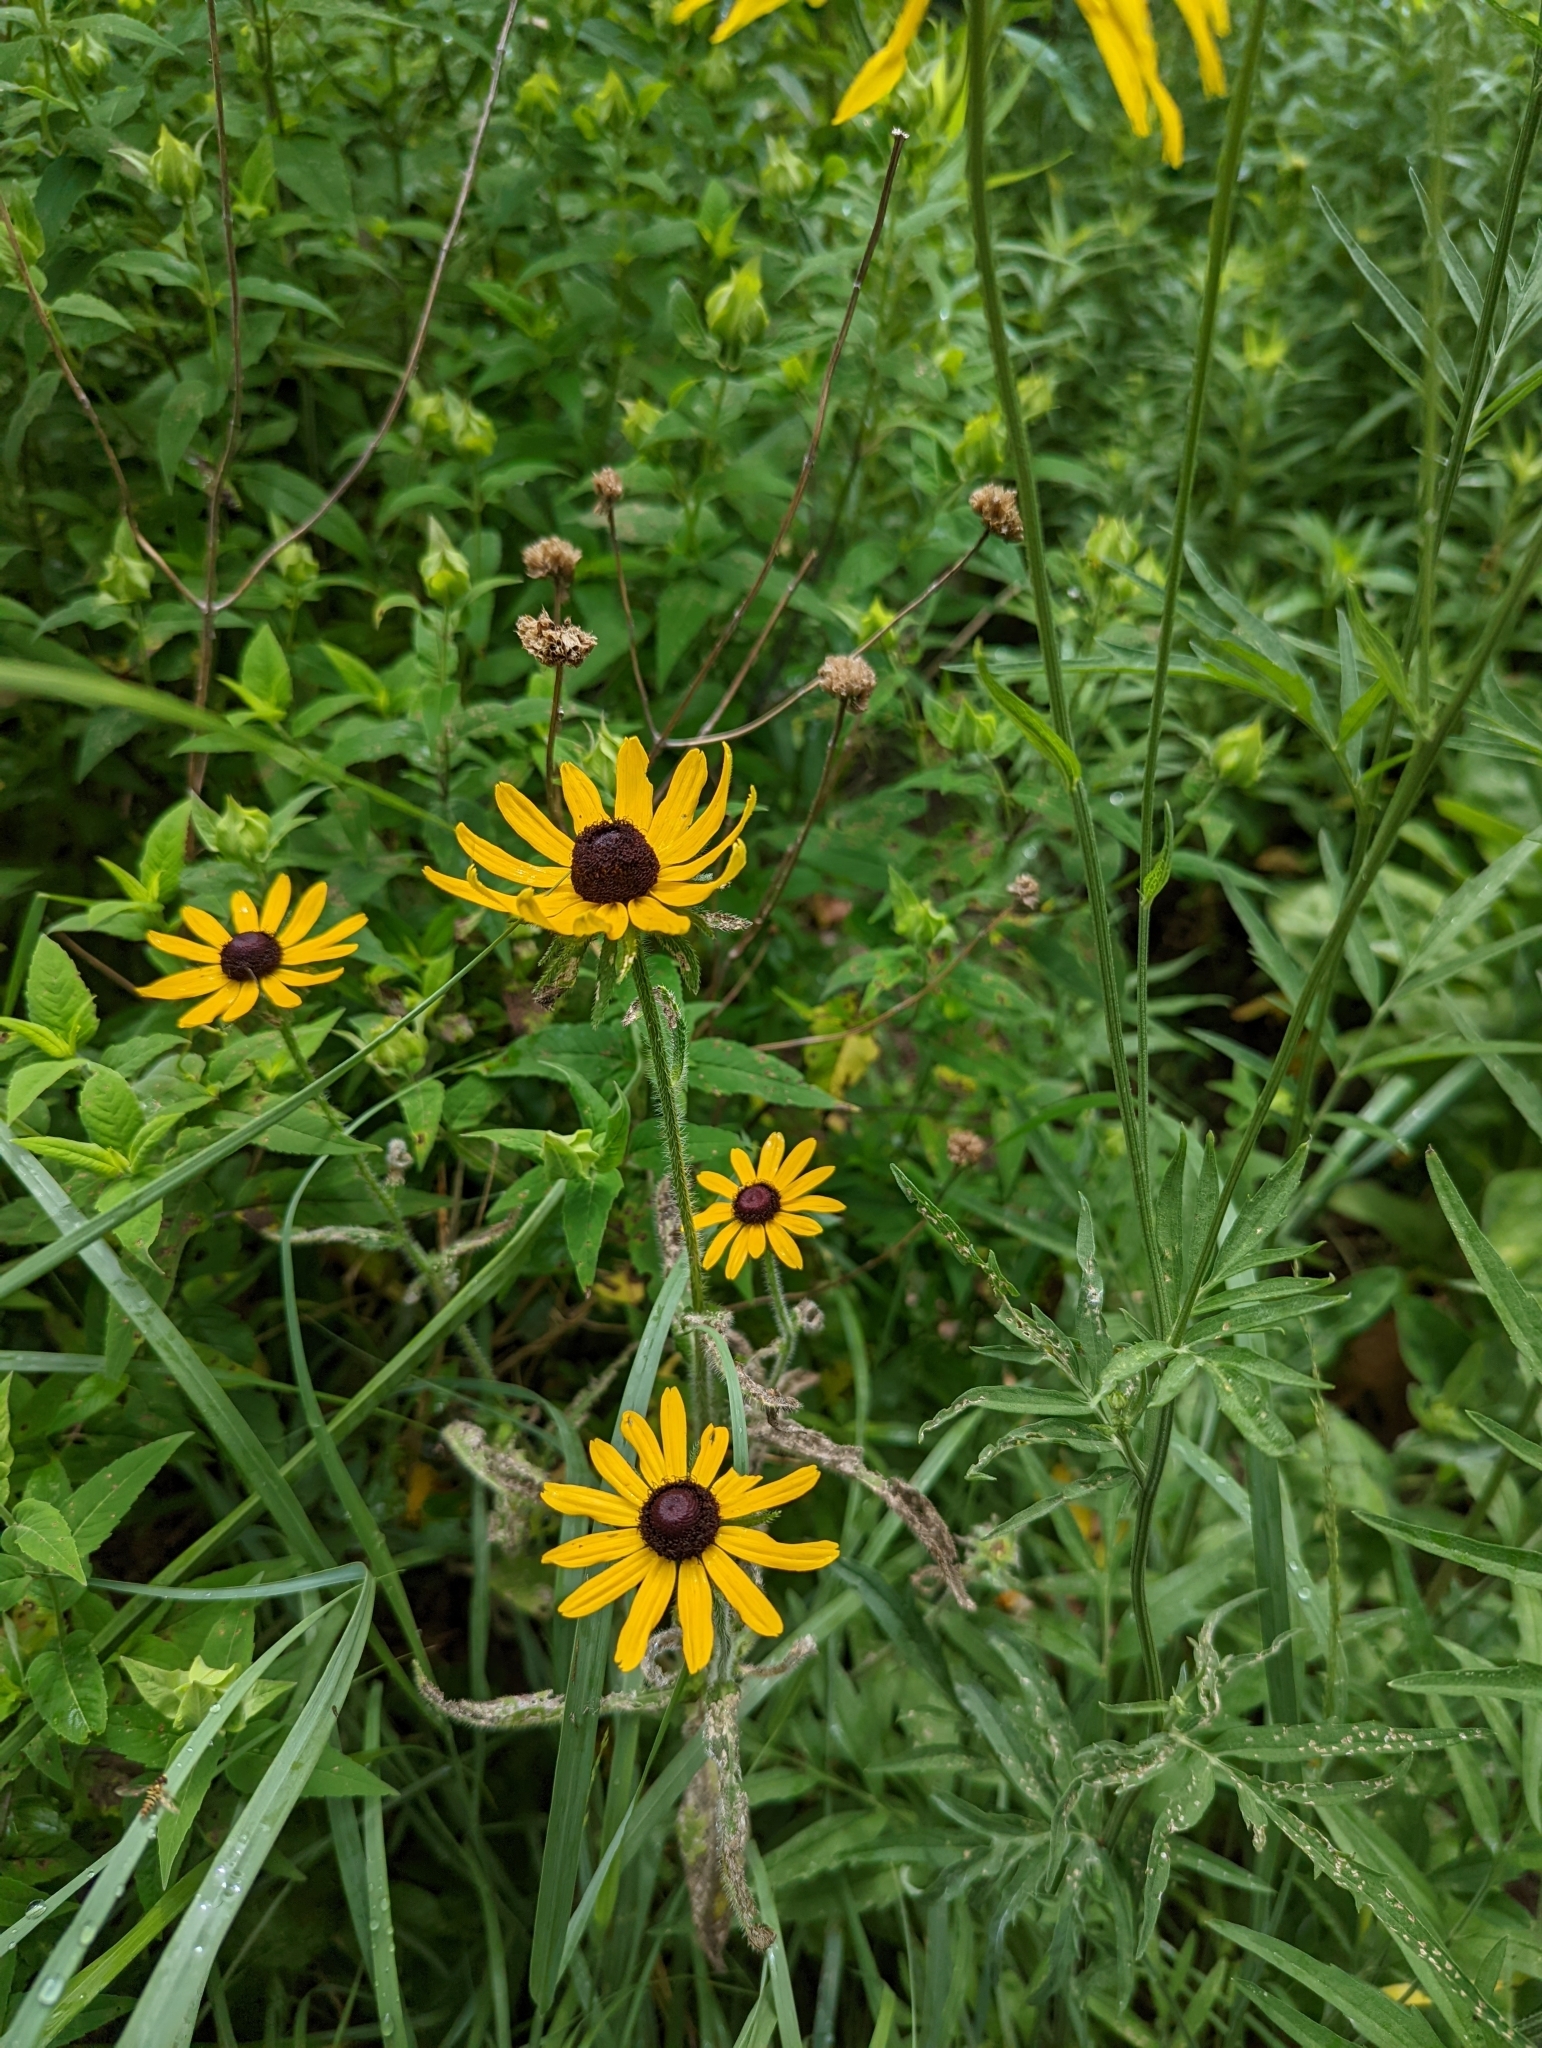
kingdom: Plantae
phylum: Tracheophyta
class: Magnoliopsida
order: Asterales
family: Asteraceae
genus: Rudbeckia
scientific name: Rudbeckia hirta
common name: Black-eyed-susan
